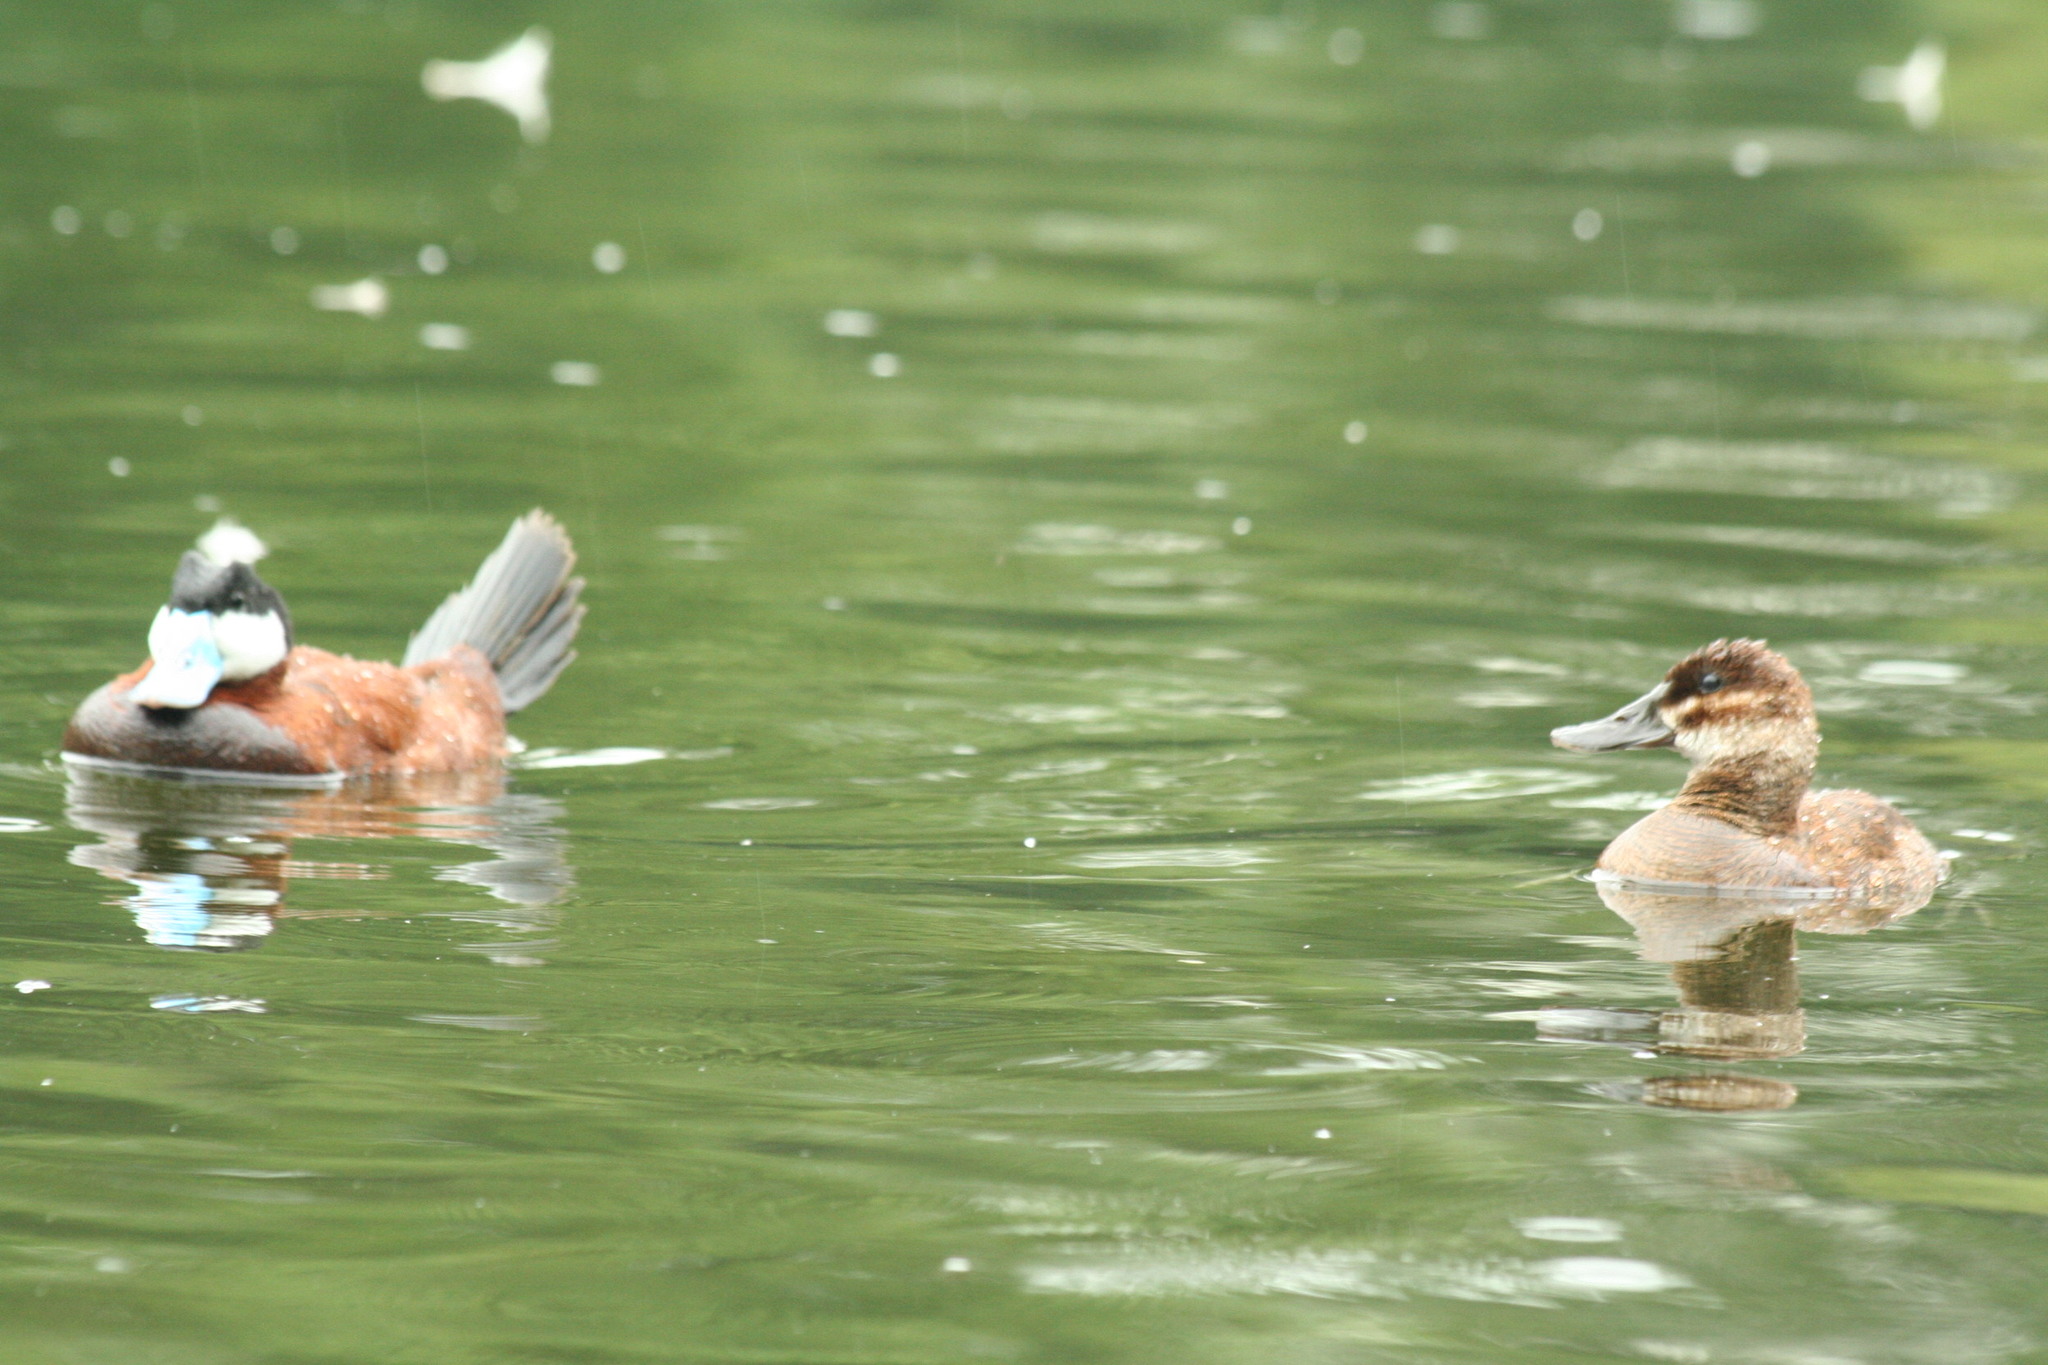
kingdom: Animalia
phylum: Chordata
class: Aves
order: Anseriformes
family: Anatidae
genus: Oxyura
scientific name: Oxyura jamaicensis
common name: Ruddy duck
